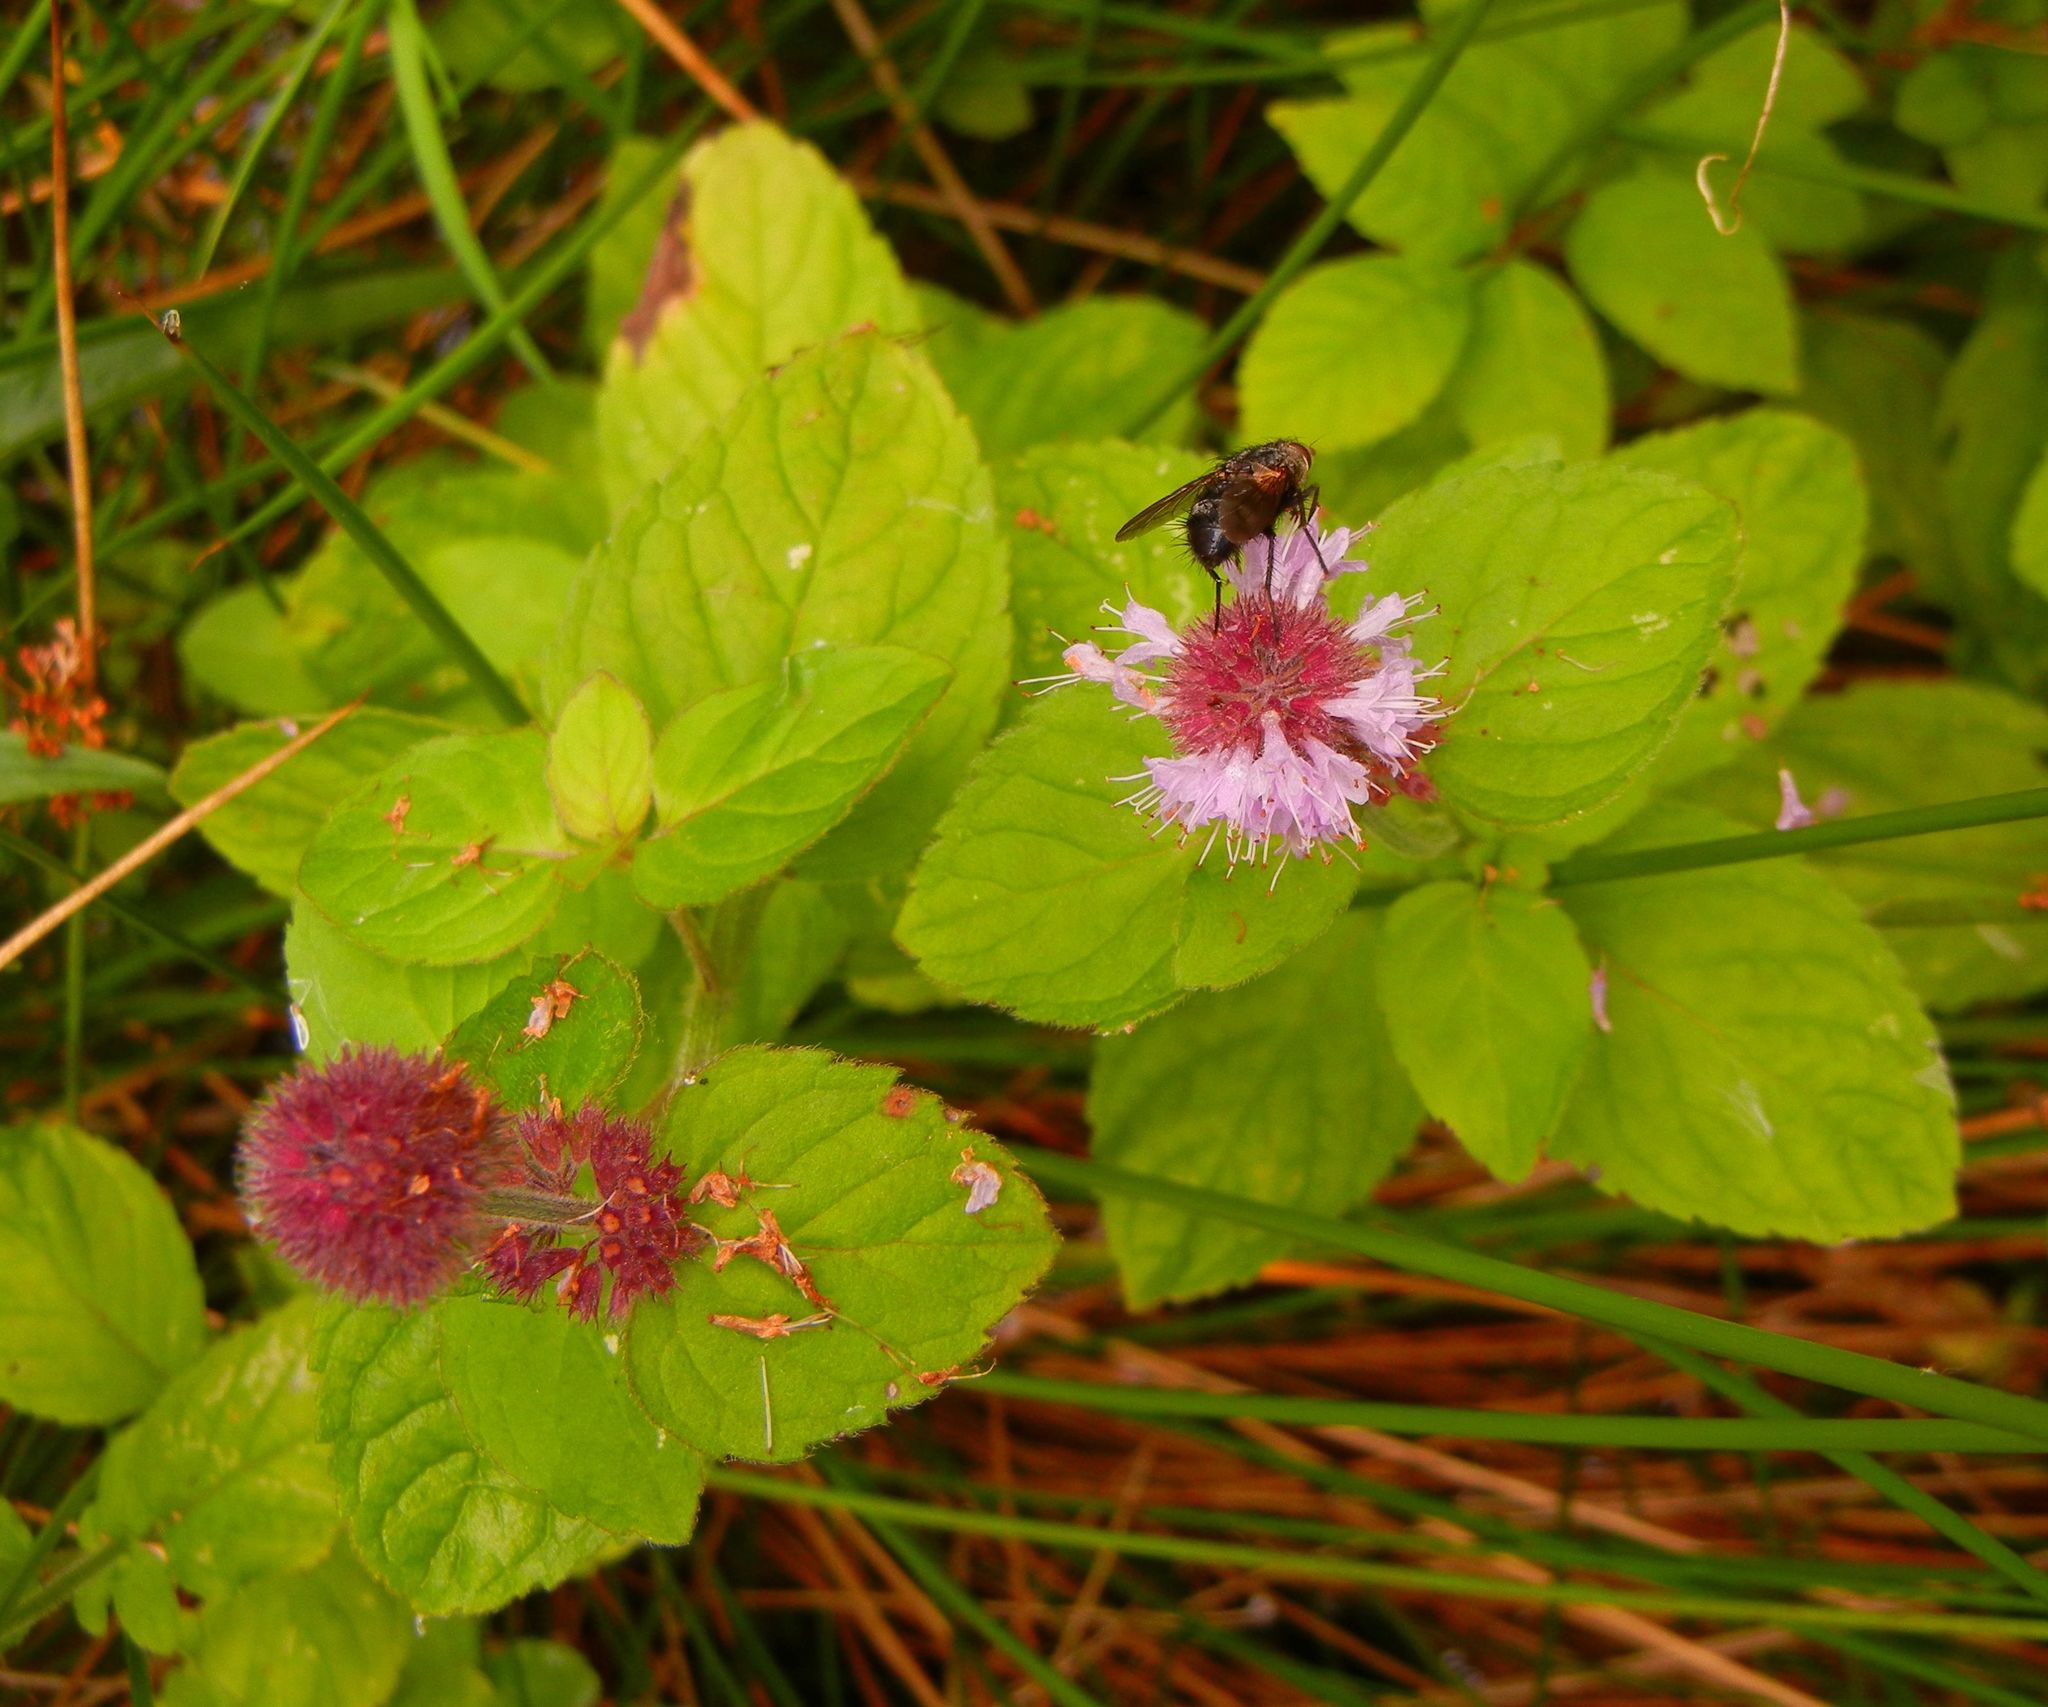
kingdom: Plantae
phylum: Tracheophyta
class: Magnoliopsida
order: Lamiales
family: Lamiaceae
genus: Mentha
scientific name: Mentha aquatica
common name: Water mint
